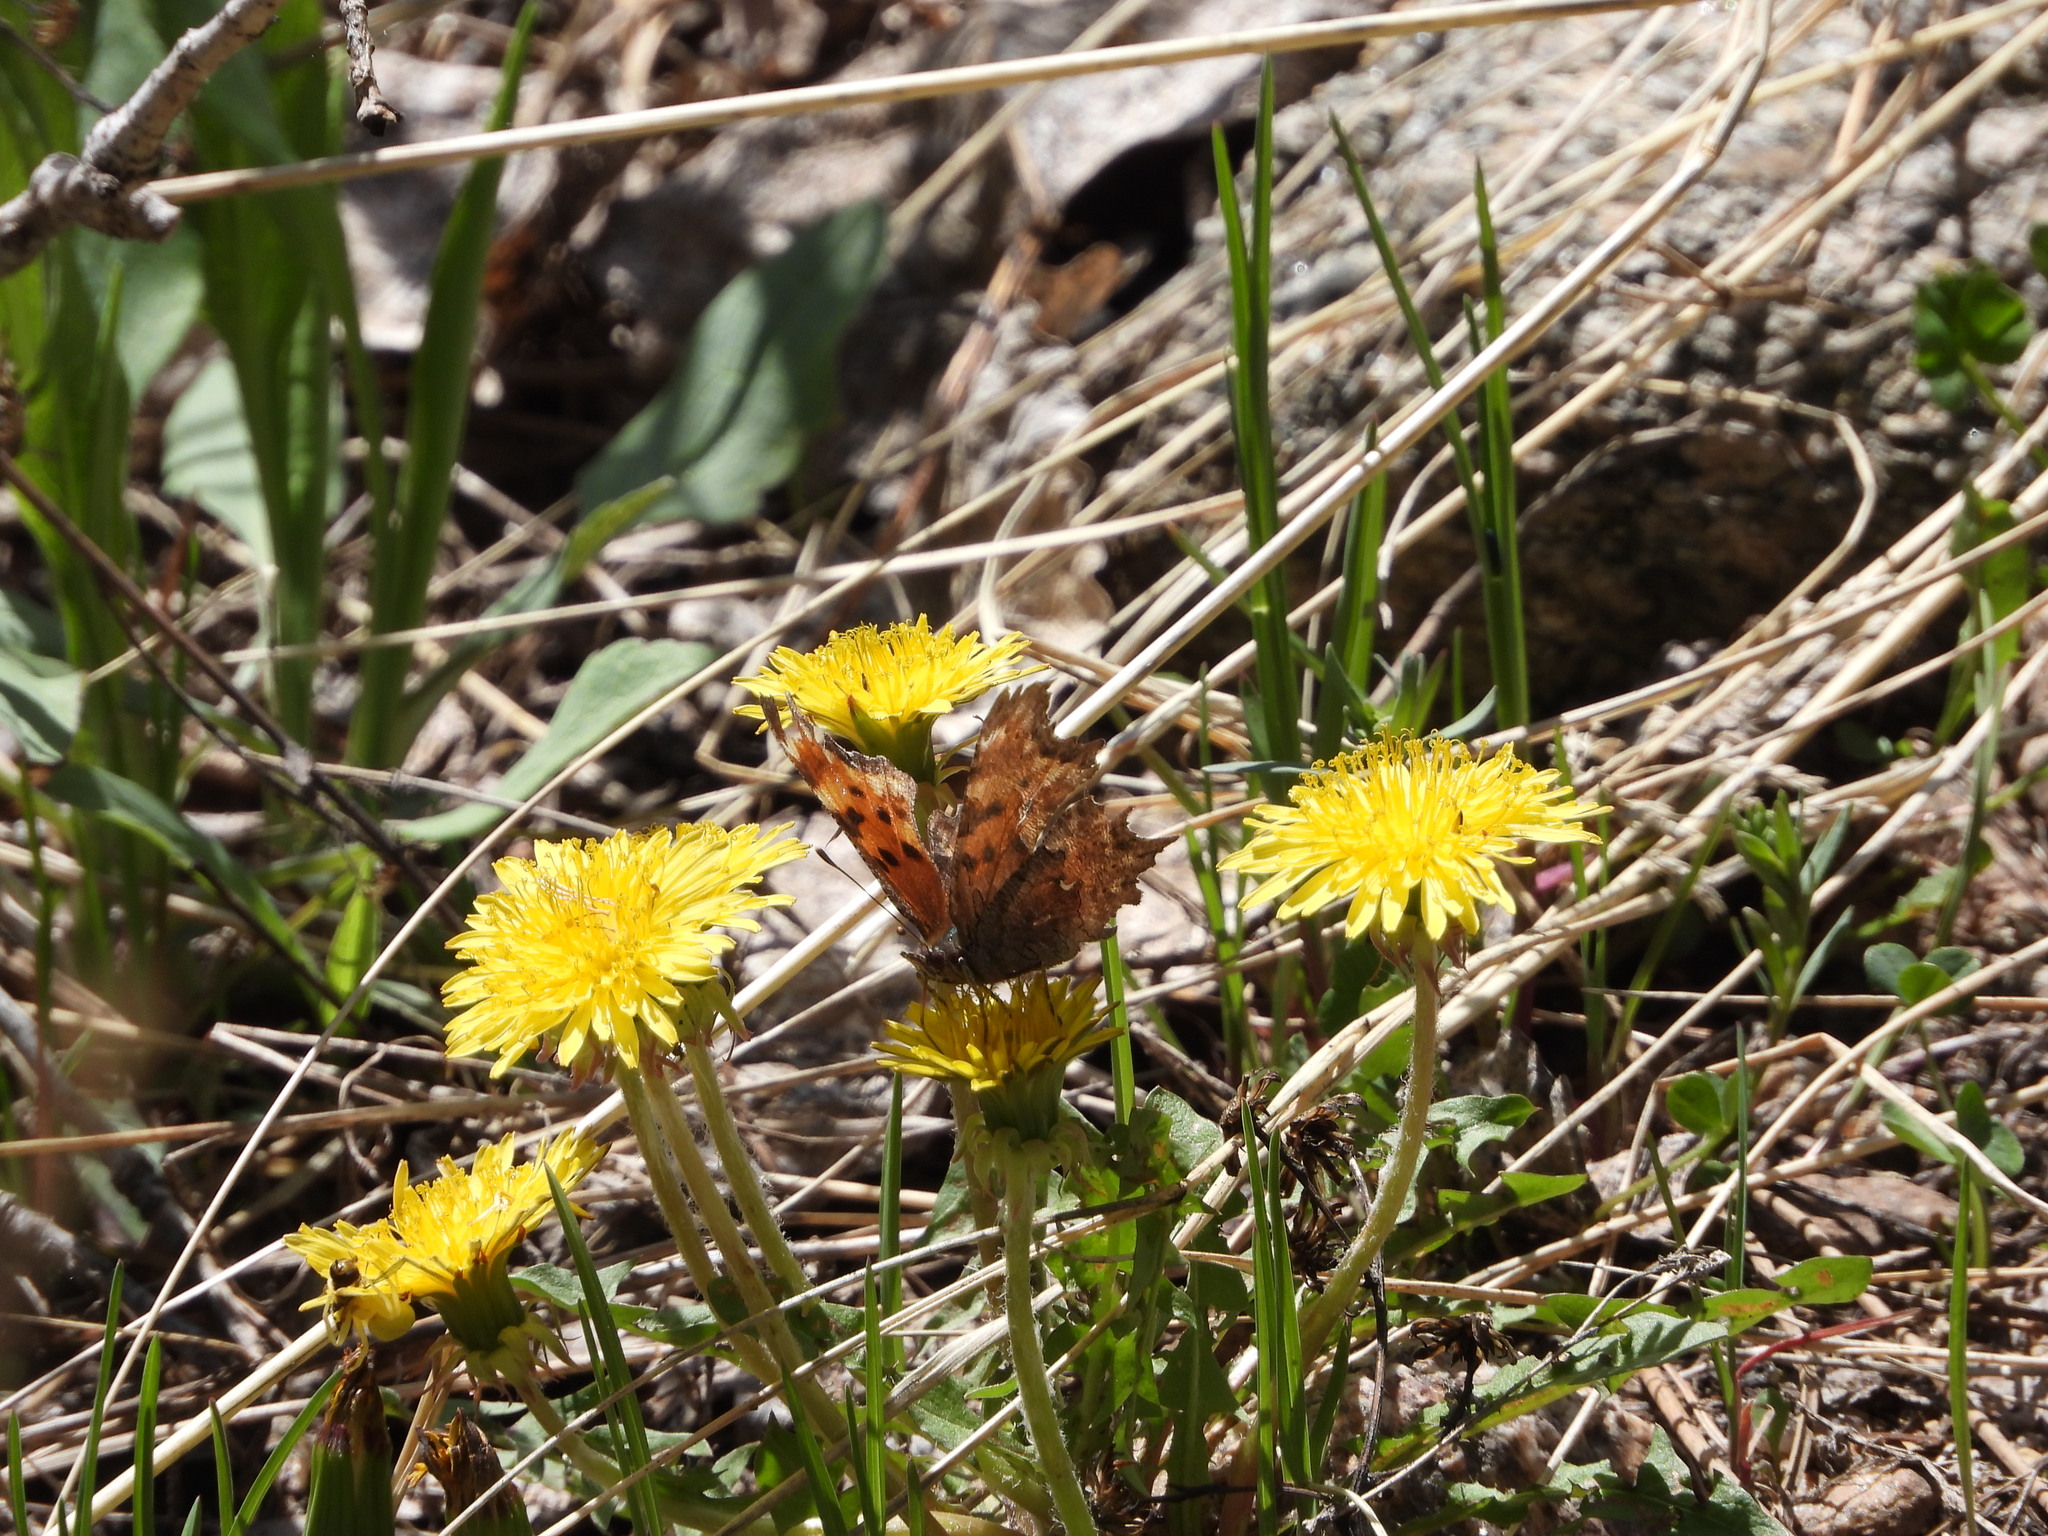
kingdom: Animalia
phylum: Arthropoda
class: Insecta
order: Lepidoptera
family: Nymphalidae
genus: Polygonia
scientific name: Polygonia gracilis
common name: Hoary comma
